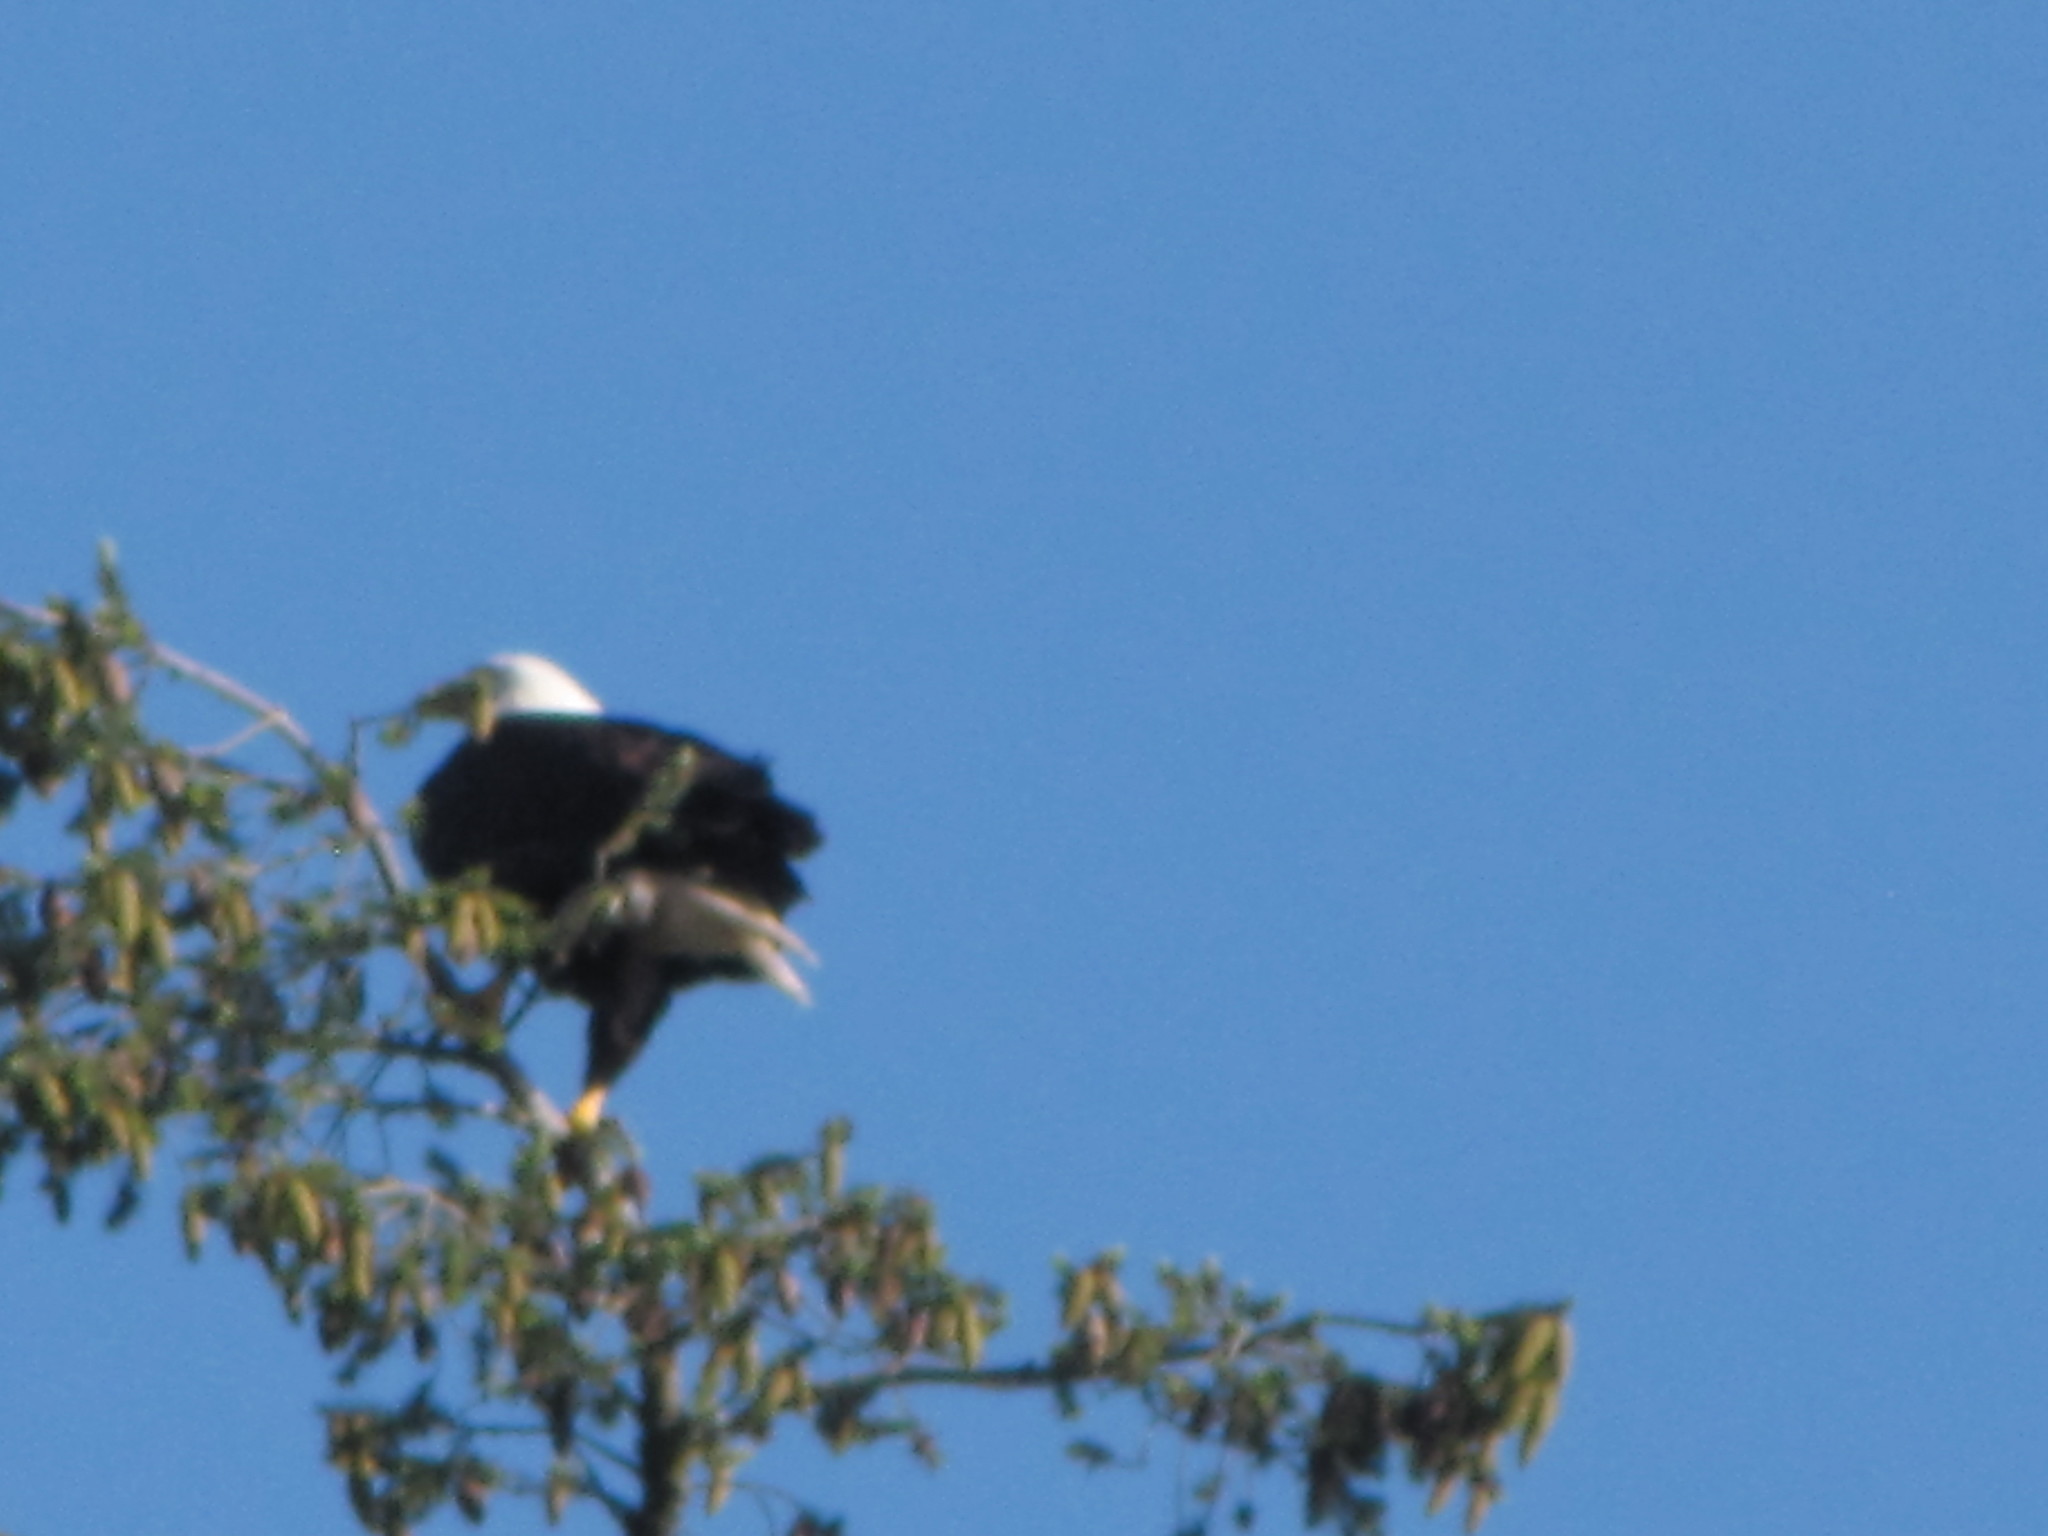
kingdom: Animalia
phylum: Chordata
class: Aves
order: Accipitriformes
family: Accipitridae
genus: Haliaeetus
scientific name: Haliaeetus leucocephalus
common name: Bald eagle
